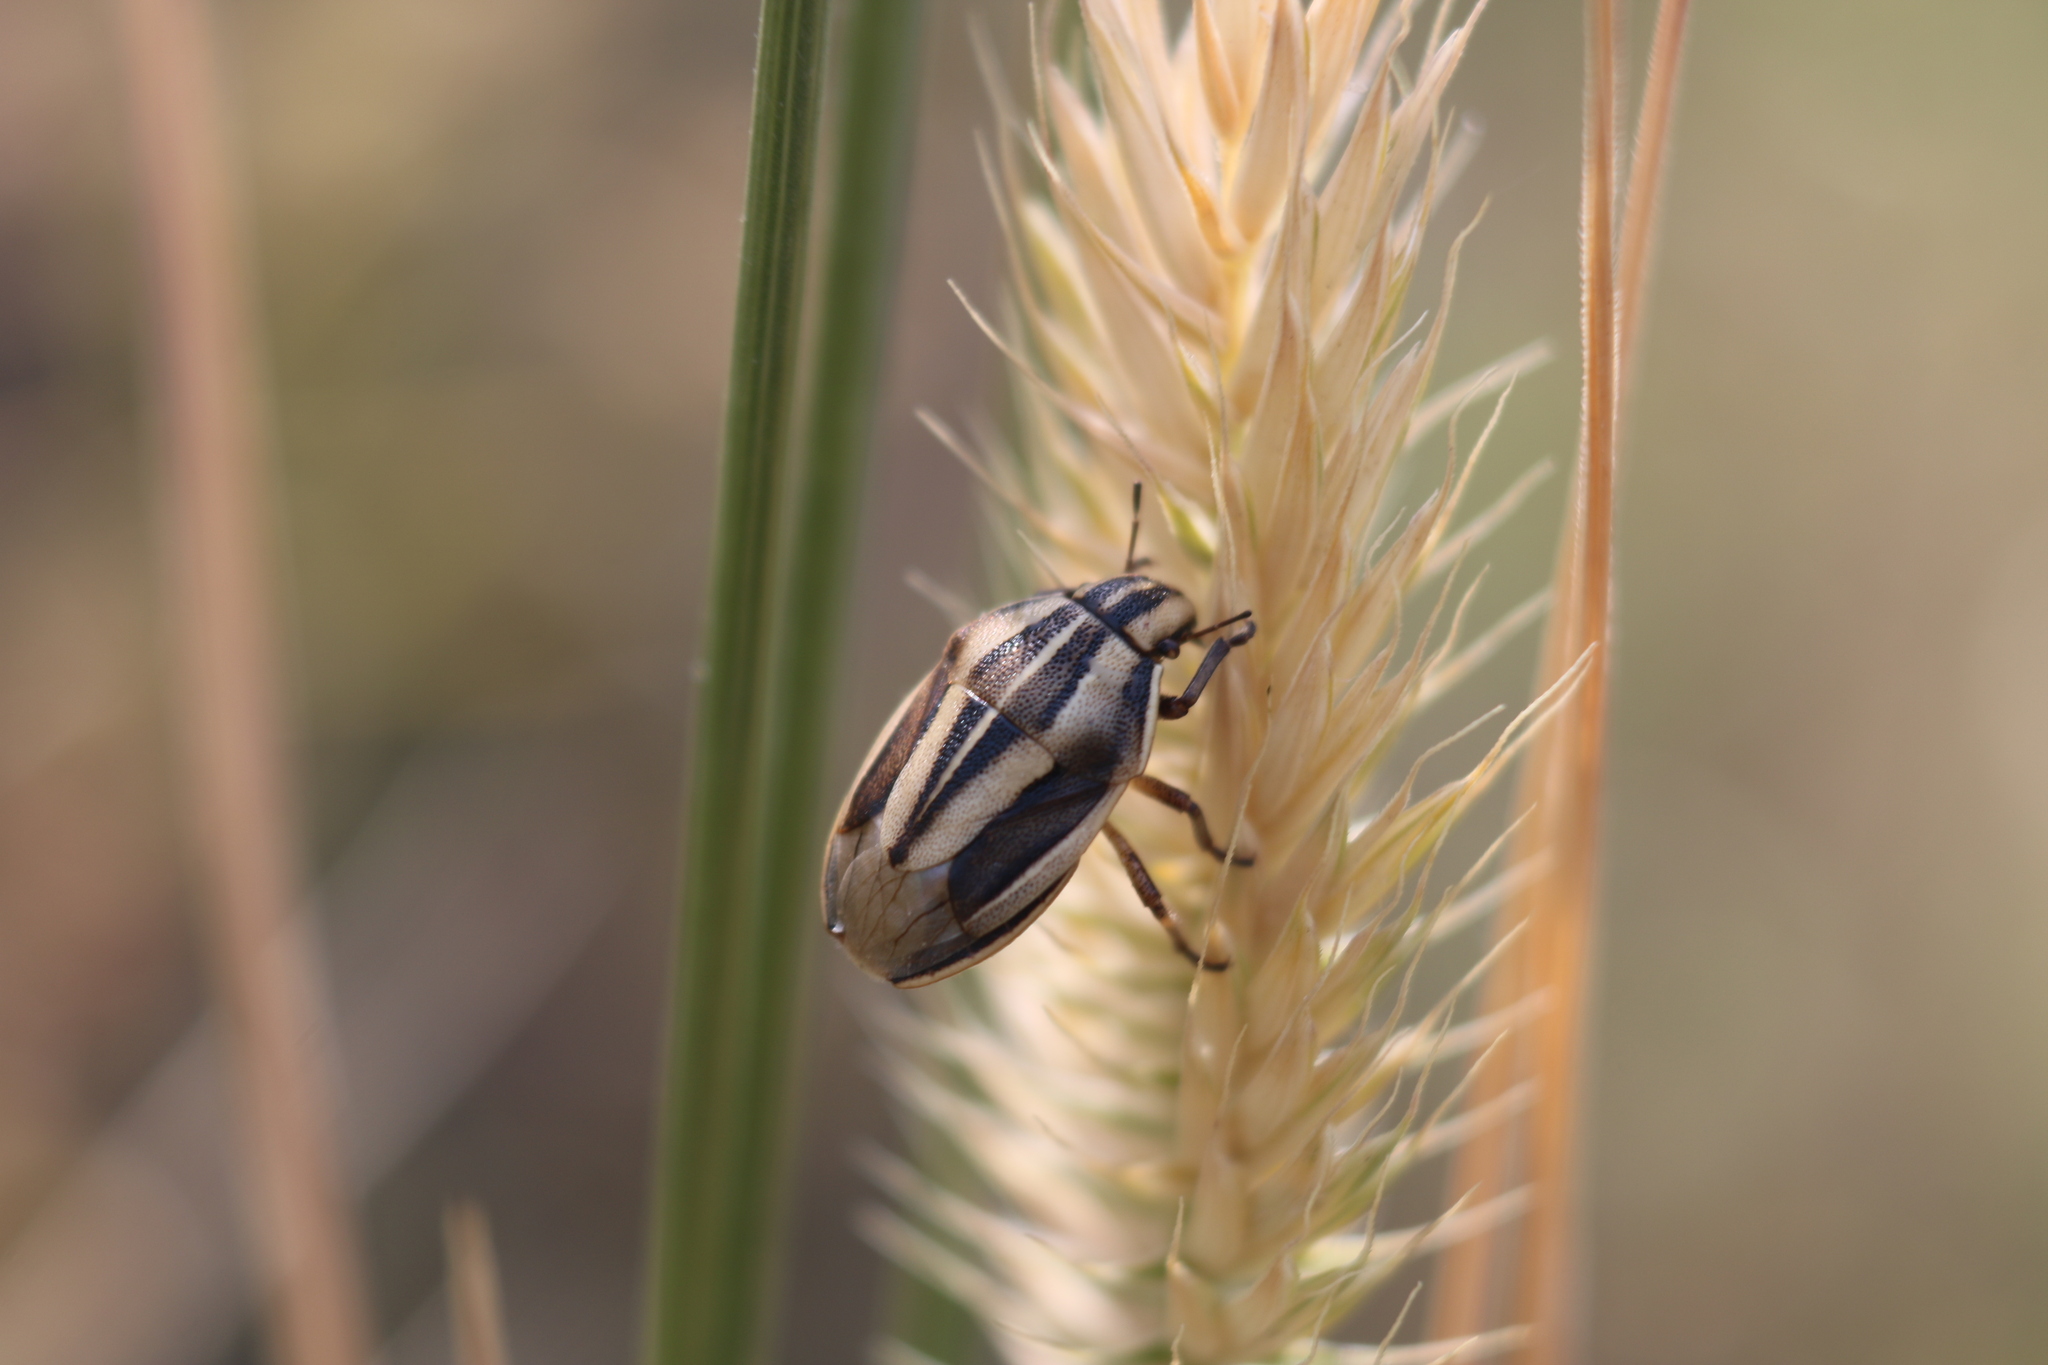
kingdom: Animalia
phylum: Arthropoda
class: Insecta
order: Hemiptera
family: Pentatomidae
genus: Aelia
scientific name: Aelia americana
